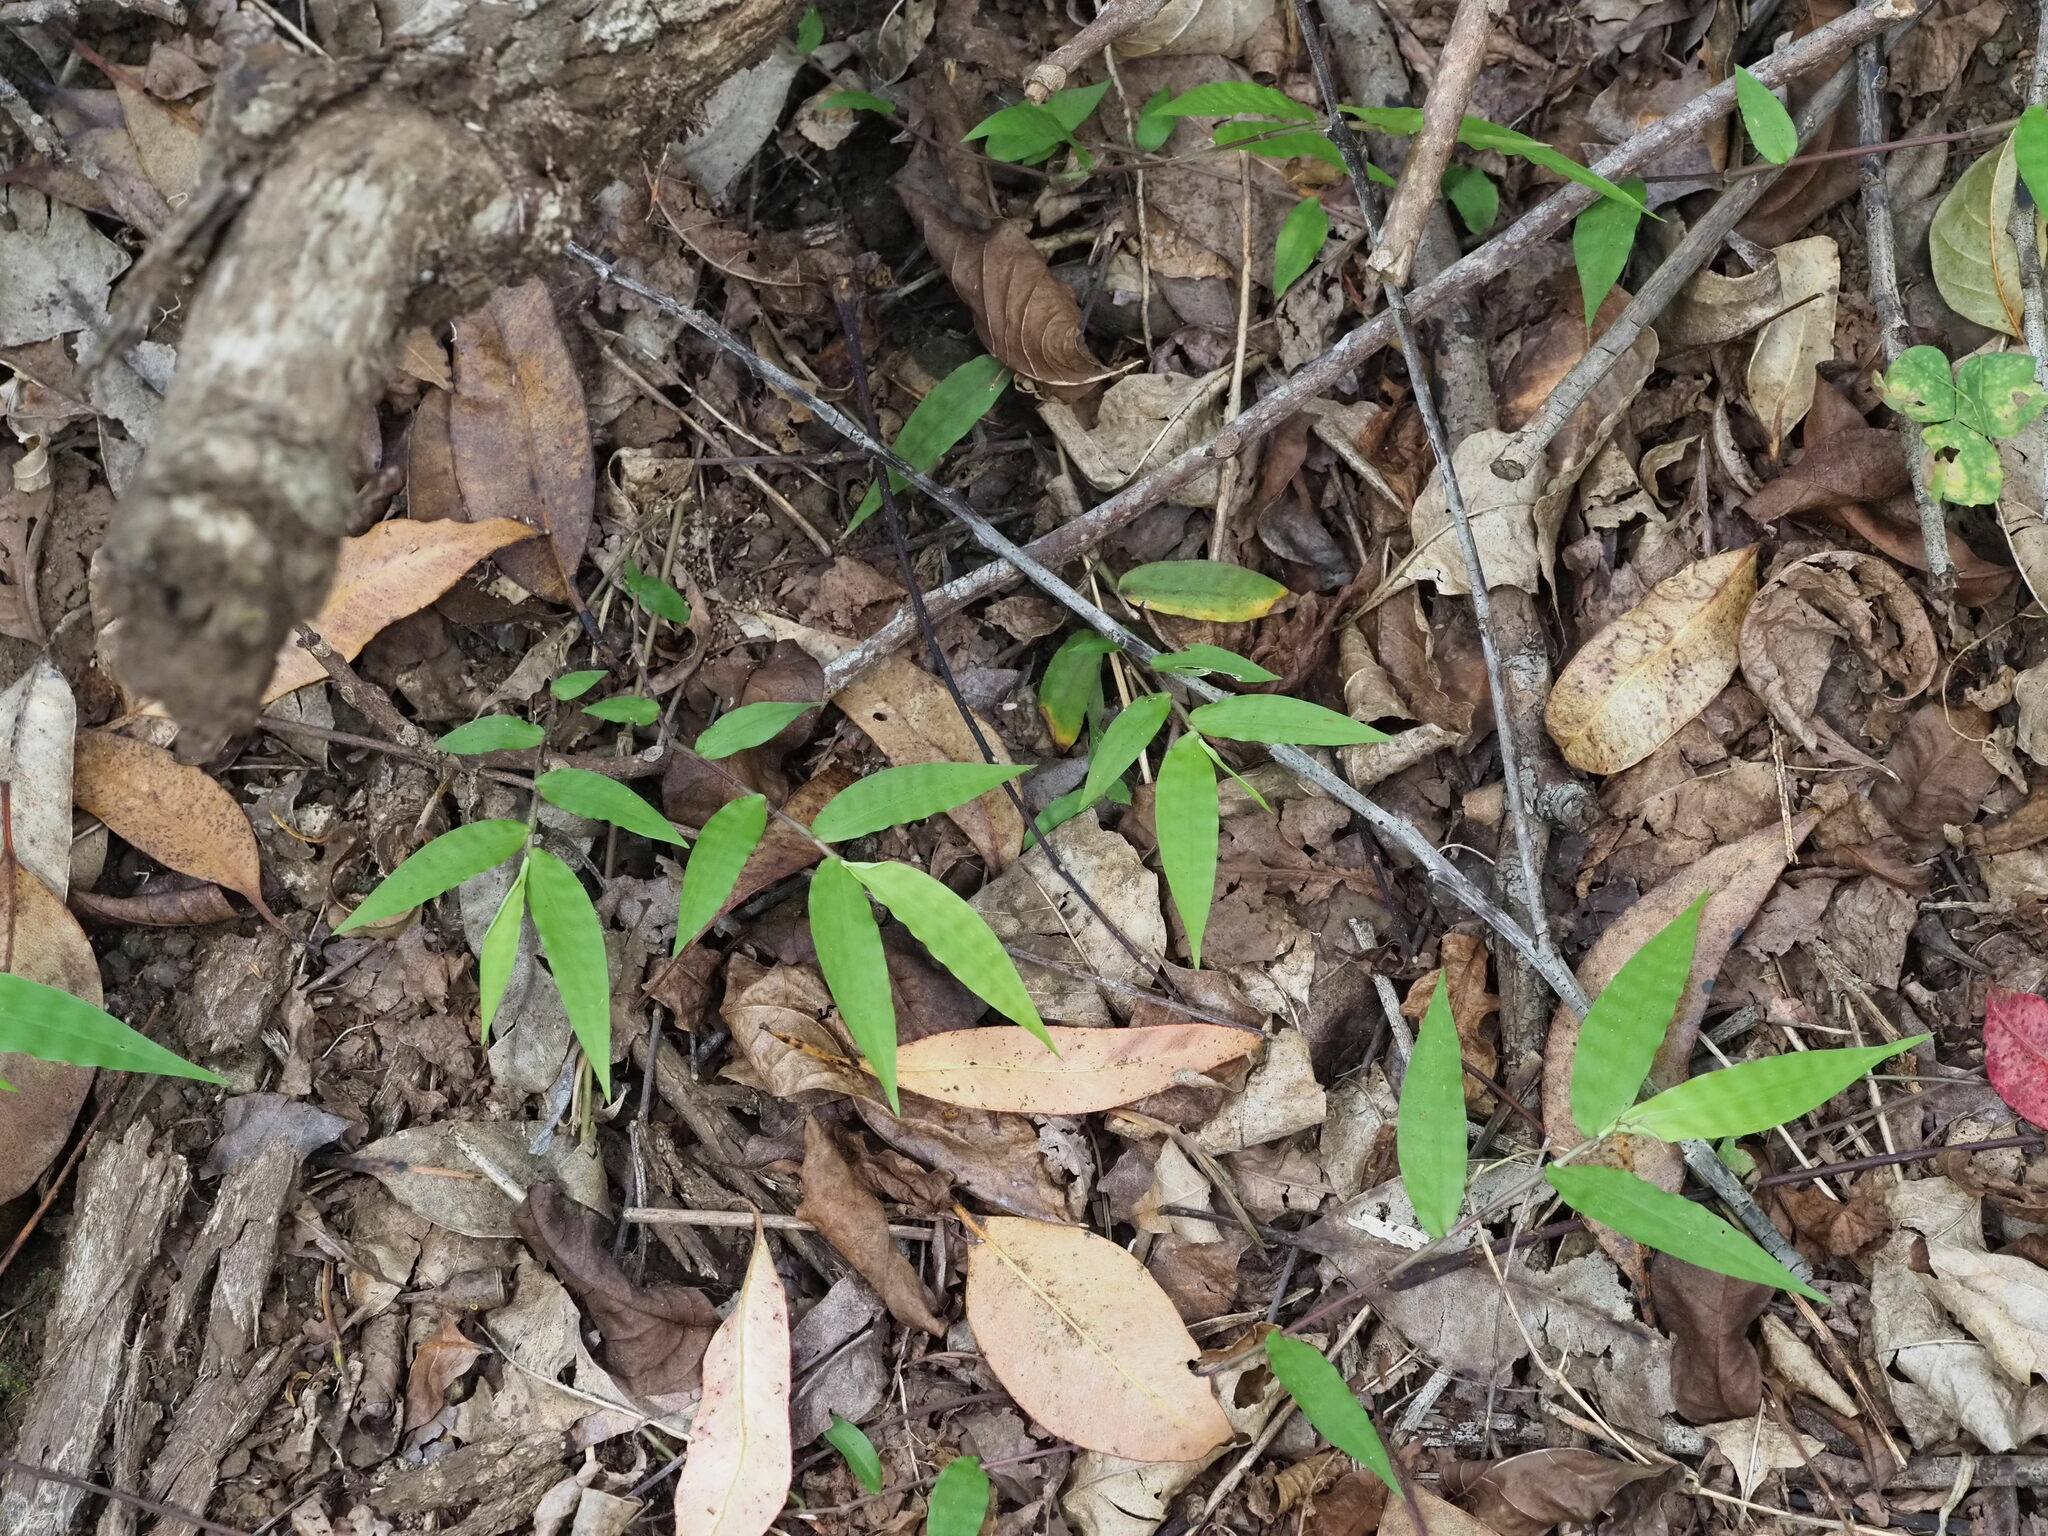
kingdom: Plantae
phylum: Tracheophyta
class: Liliopsida
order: Poales
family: Poaceae
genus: Oplismenus
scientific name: Oplismenus hirtellus
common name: Basketgrass
